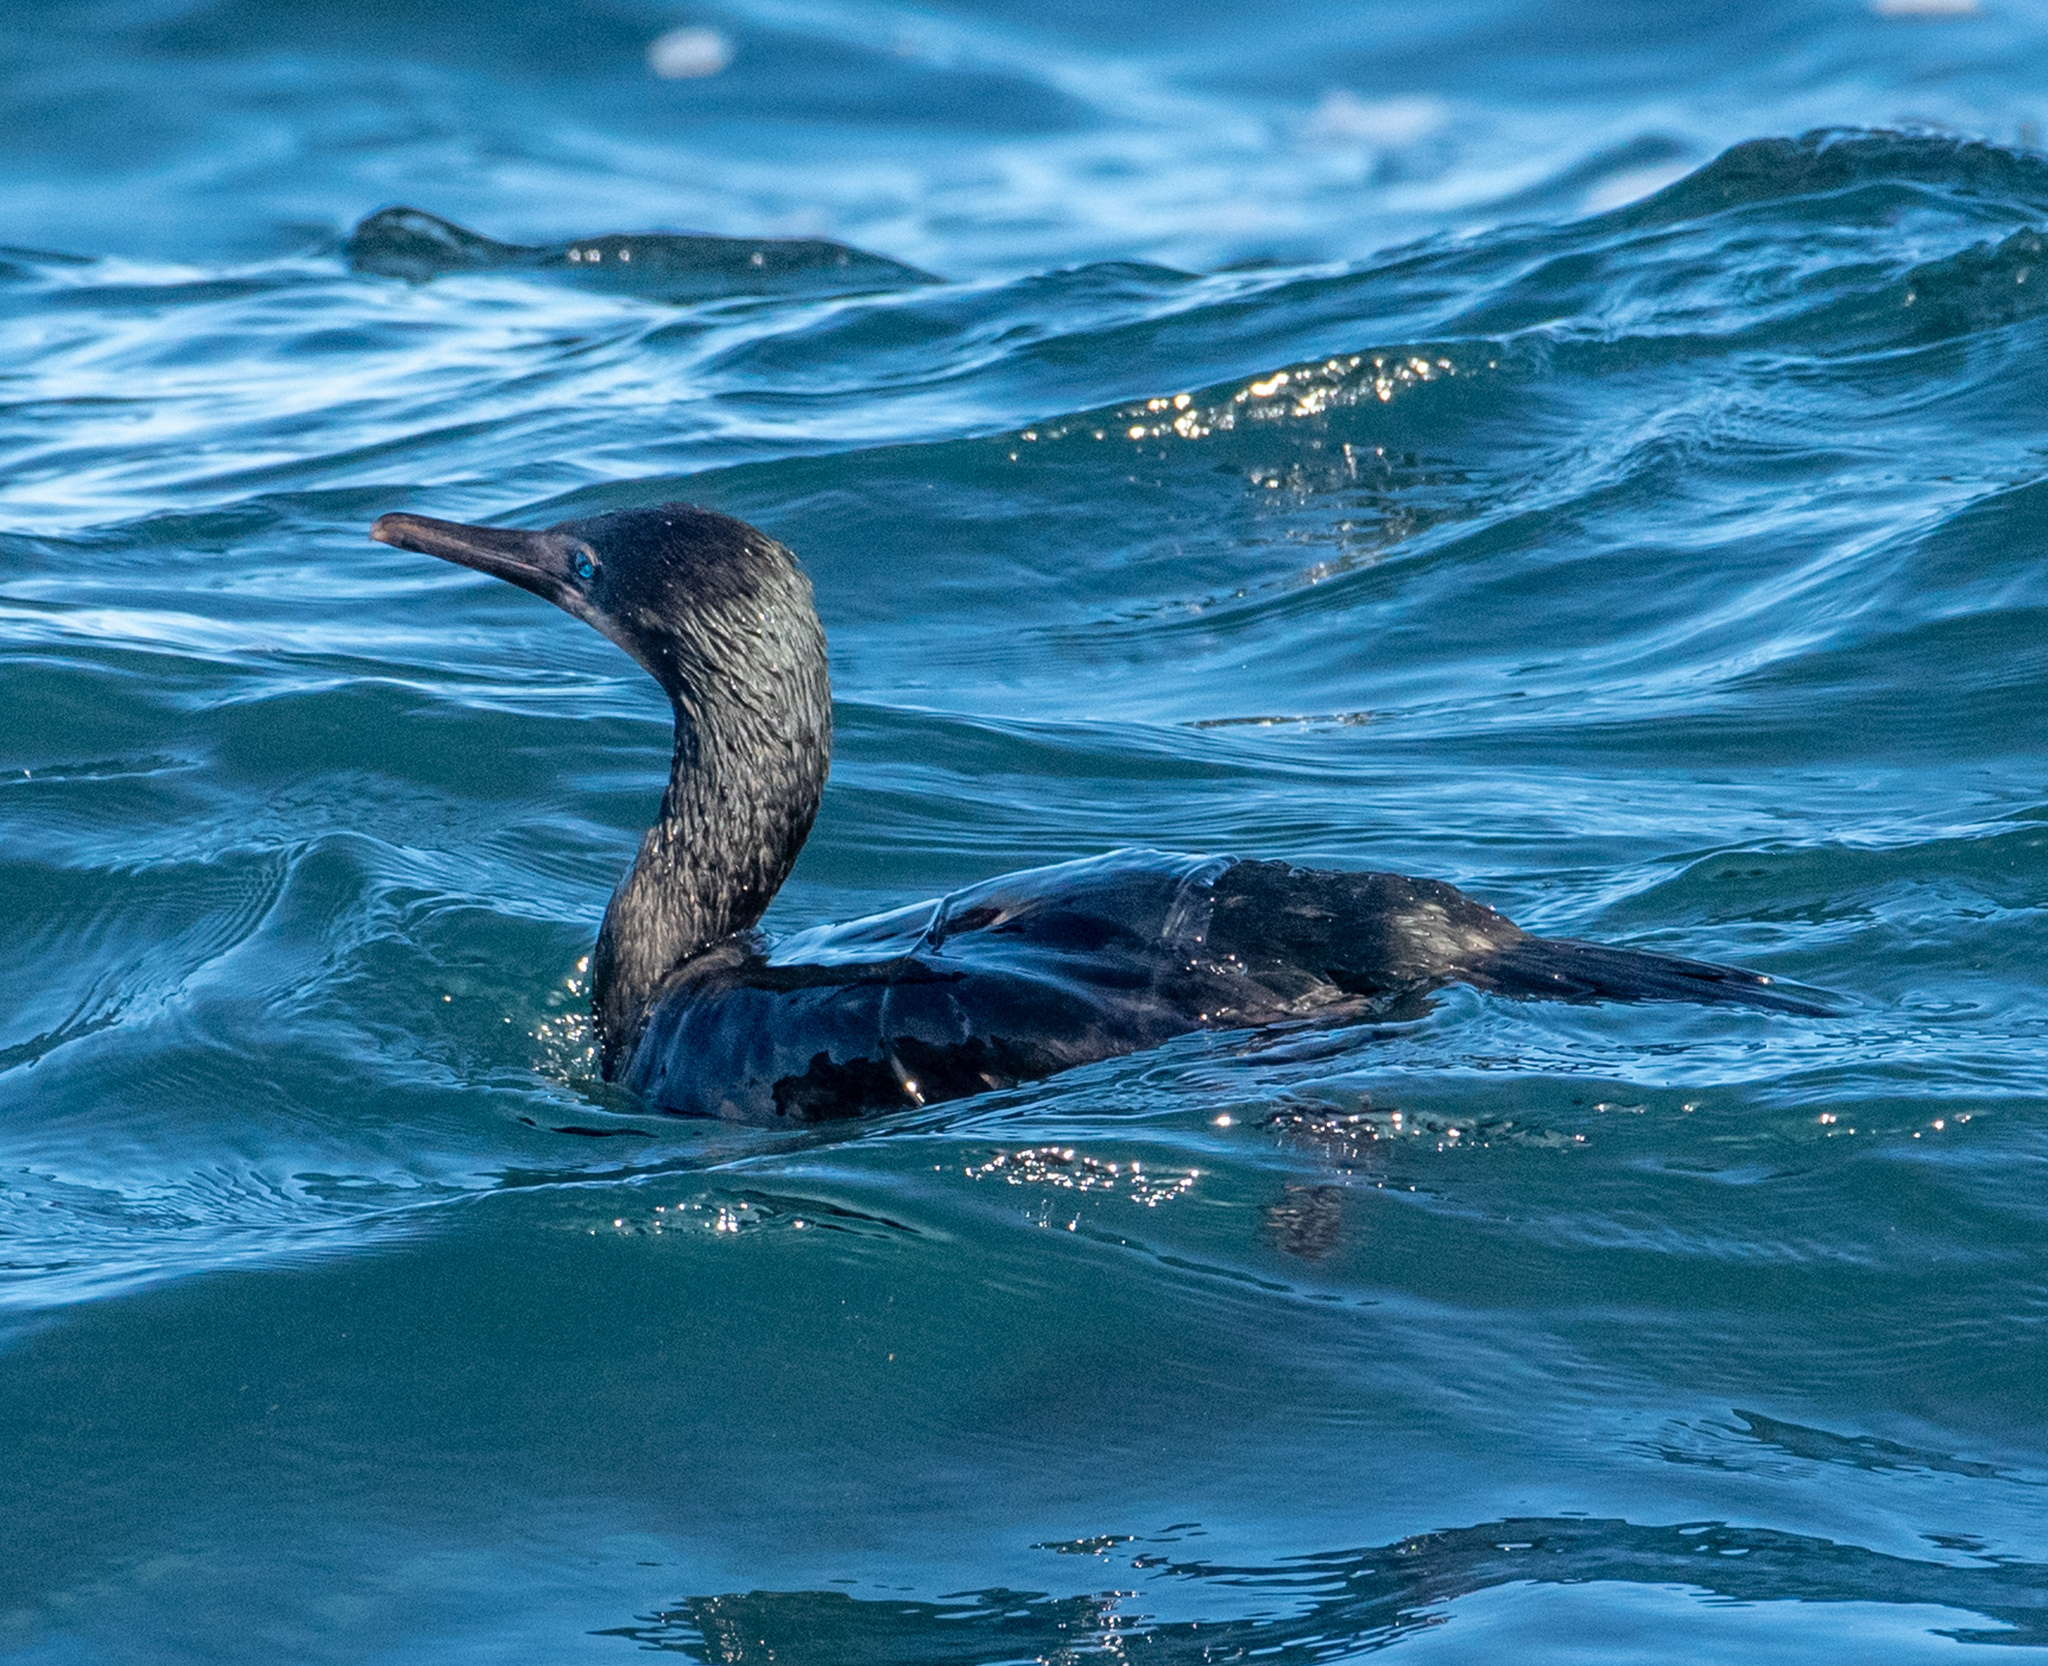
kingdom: Animalia
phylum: Chordata
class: Aves
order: Suliformes
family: Phalacrocoracidae
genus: Urile
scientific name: Urile penicillatus
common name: Brandt's cormorant
